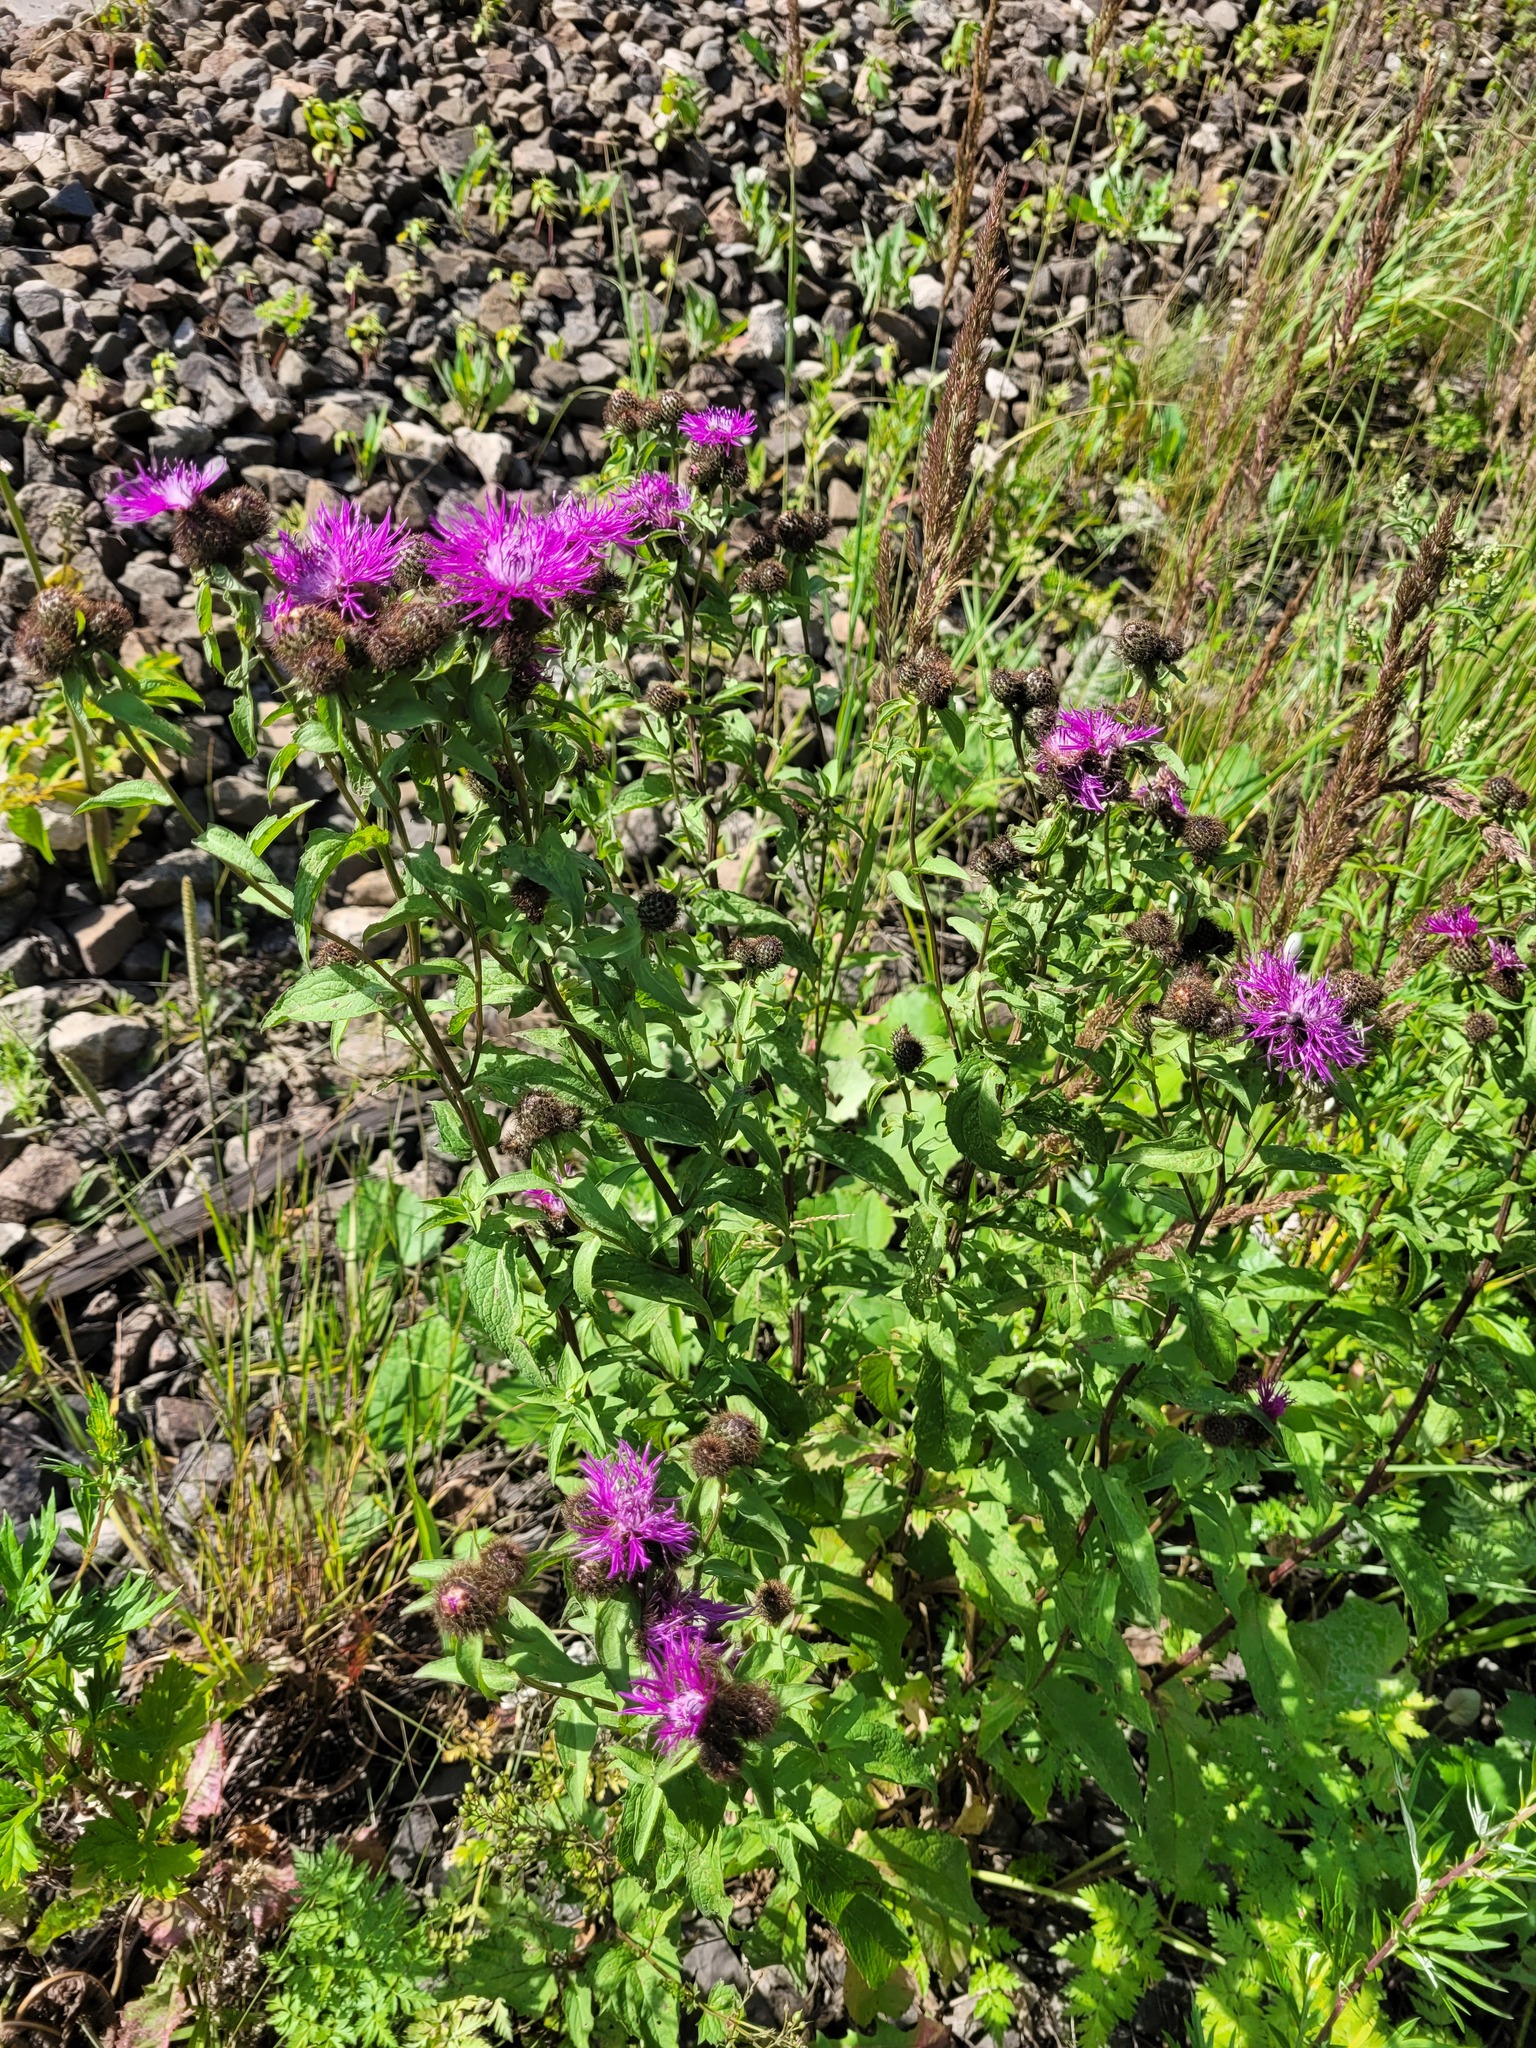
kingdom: Plantae
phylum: Tracheophyta
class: Magnoliopsida
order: Asterales
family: Asteraceae
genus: Centaurea
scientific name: Centaurea pseudophrygia
